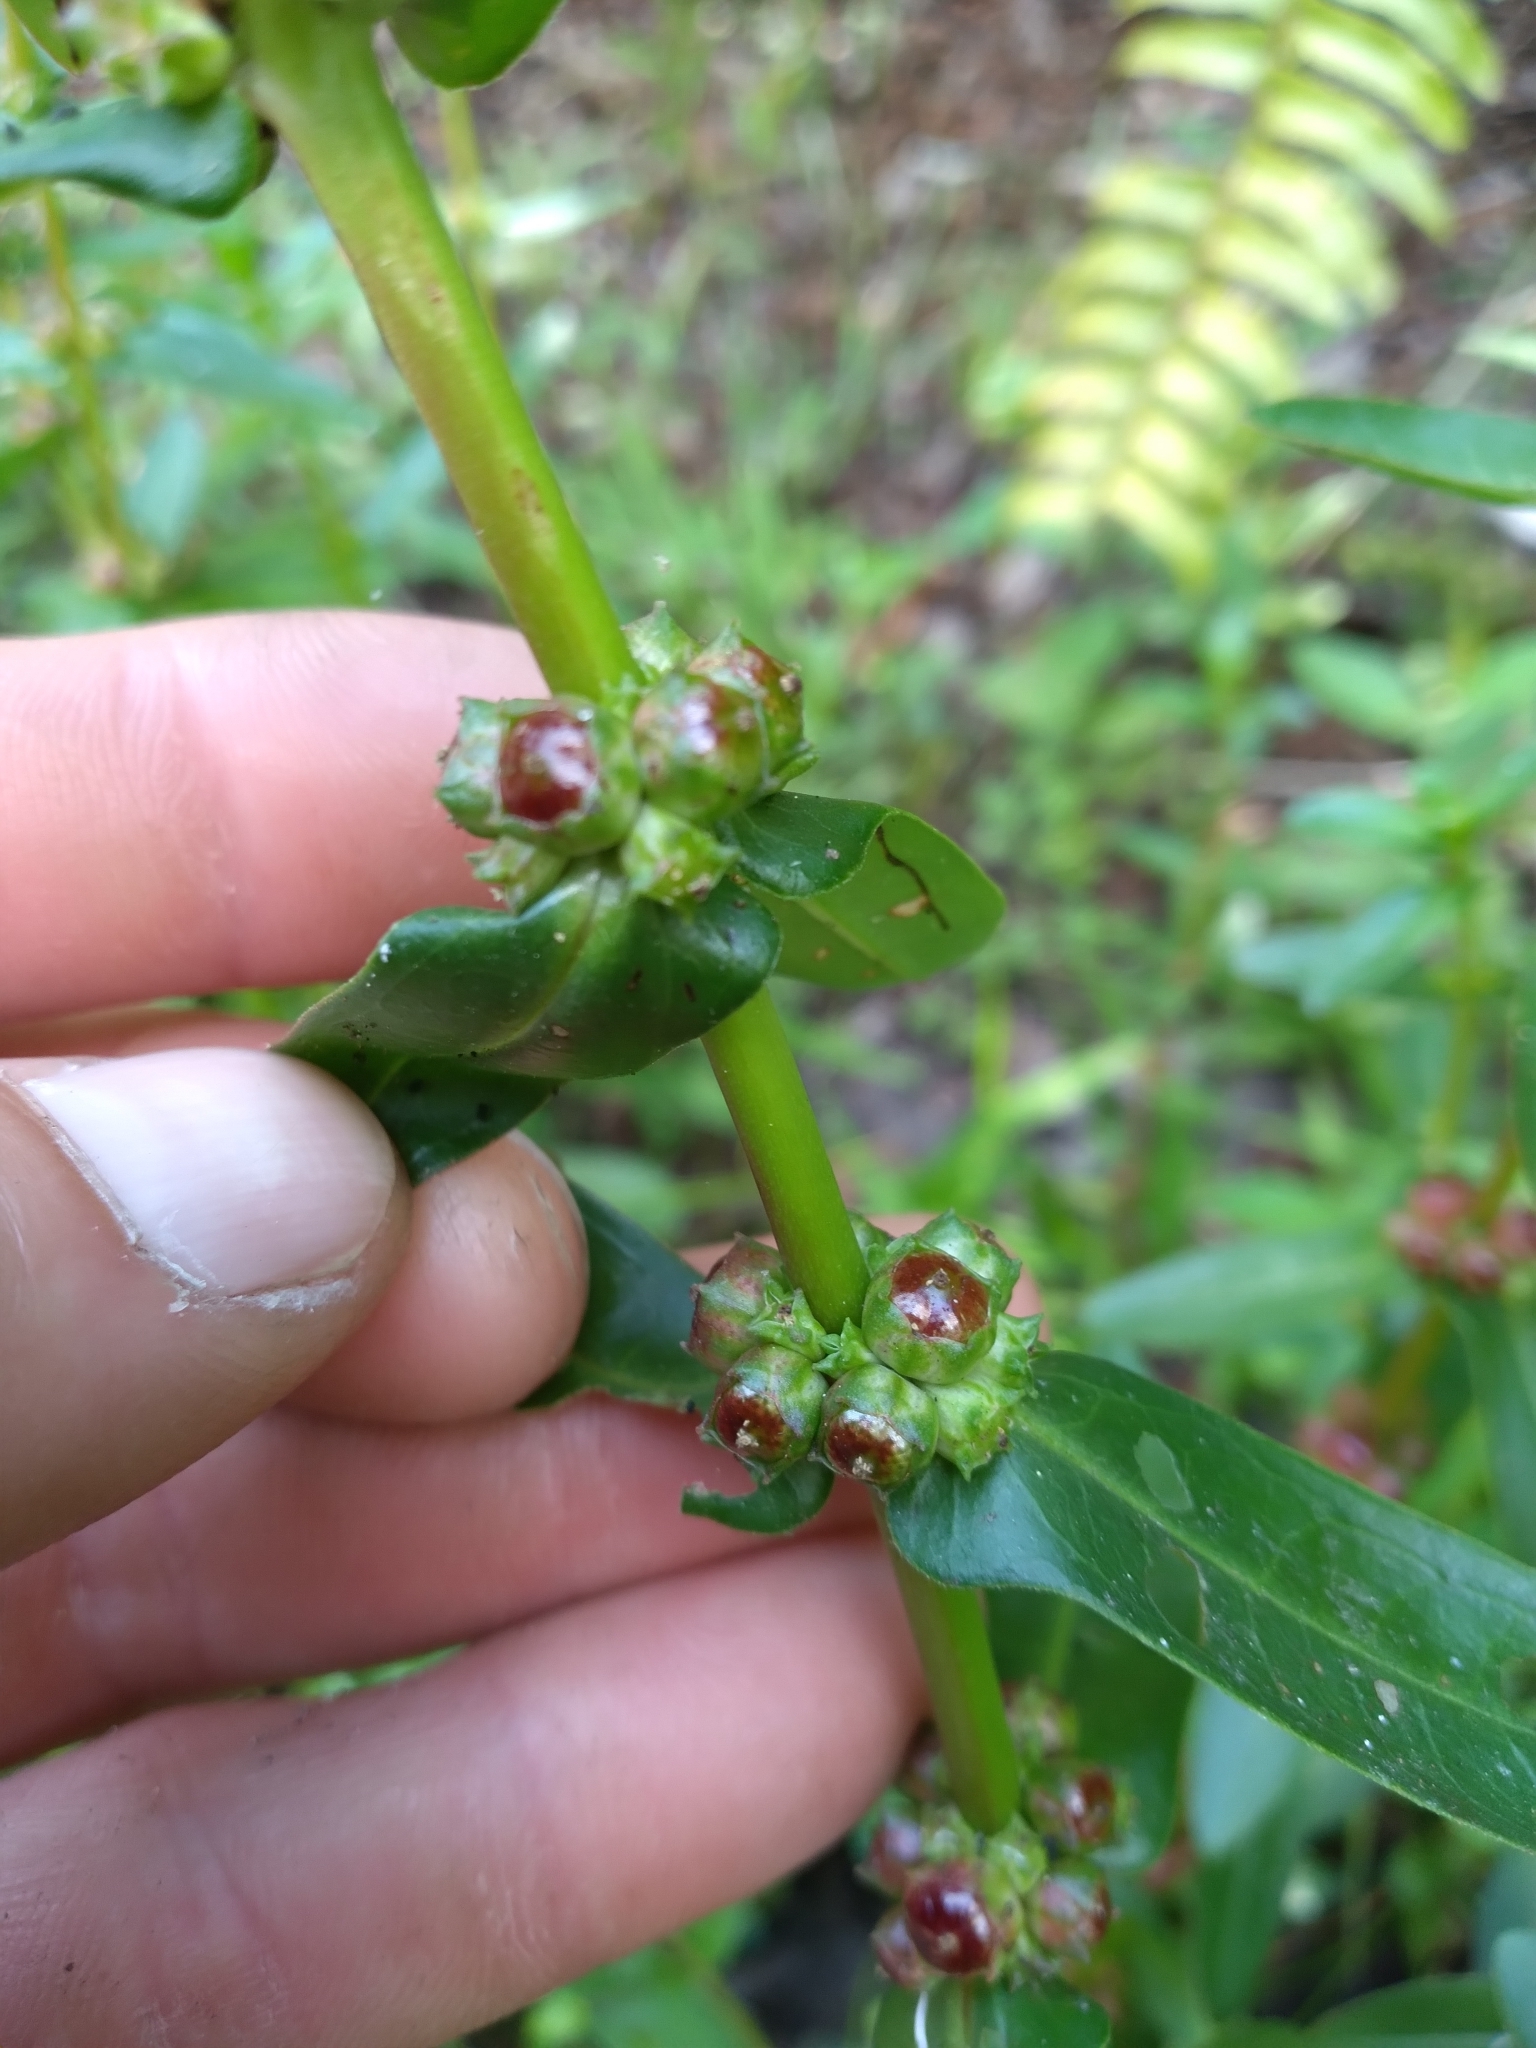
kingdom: Plantae
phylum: Tracheophyta
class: Magnoliopsida
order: Myrtales
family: Lythraceae
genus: Ammannia
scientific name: Ammannia latifolia
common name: Toothcup
